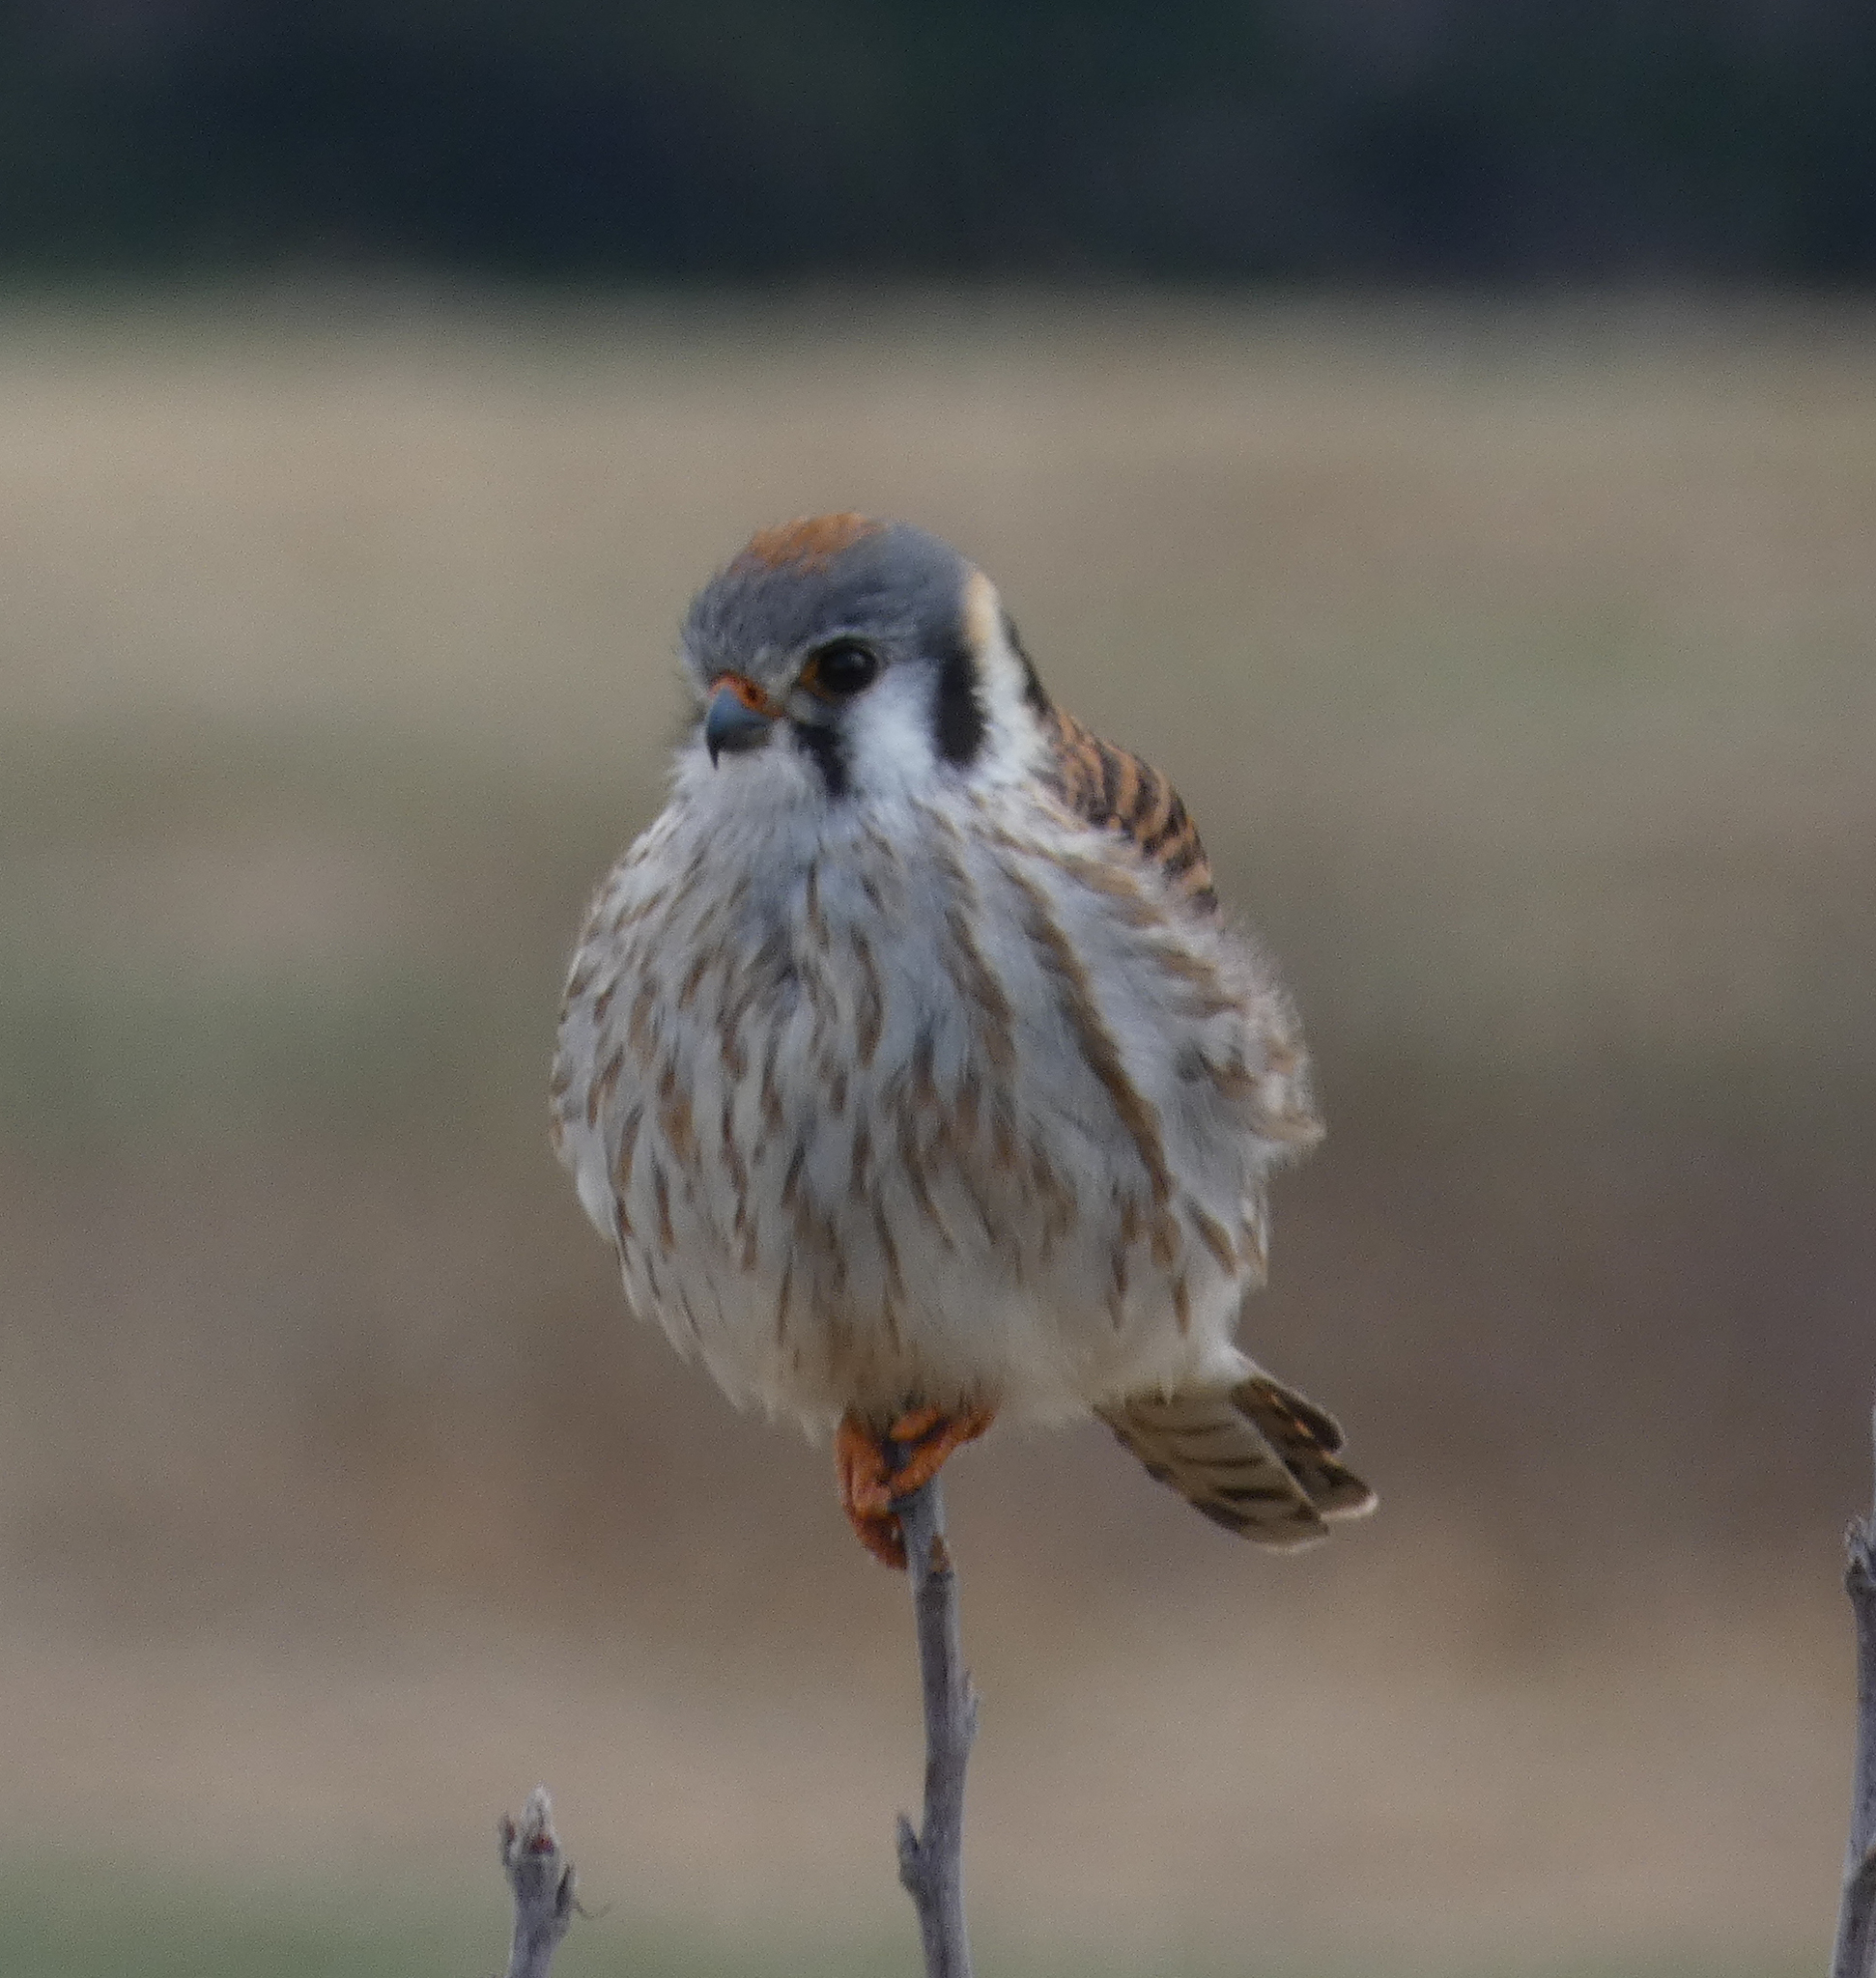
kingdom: Animalia
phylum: Chordata
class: Aves
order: Falconiformes
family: Falconidae
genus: Falco
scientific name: Falco sparverius
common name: American kestrel
